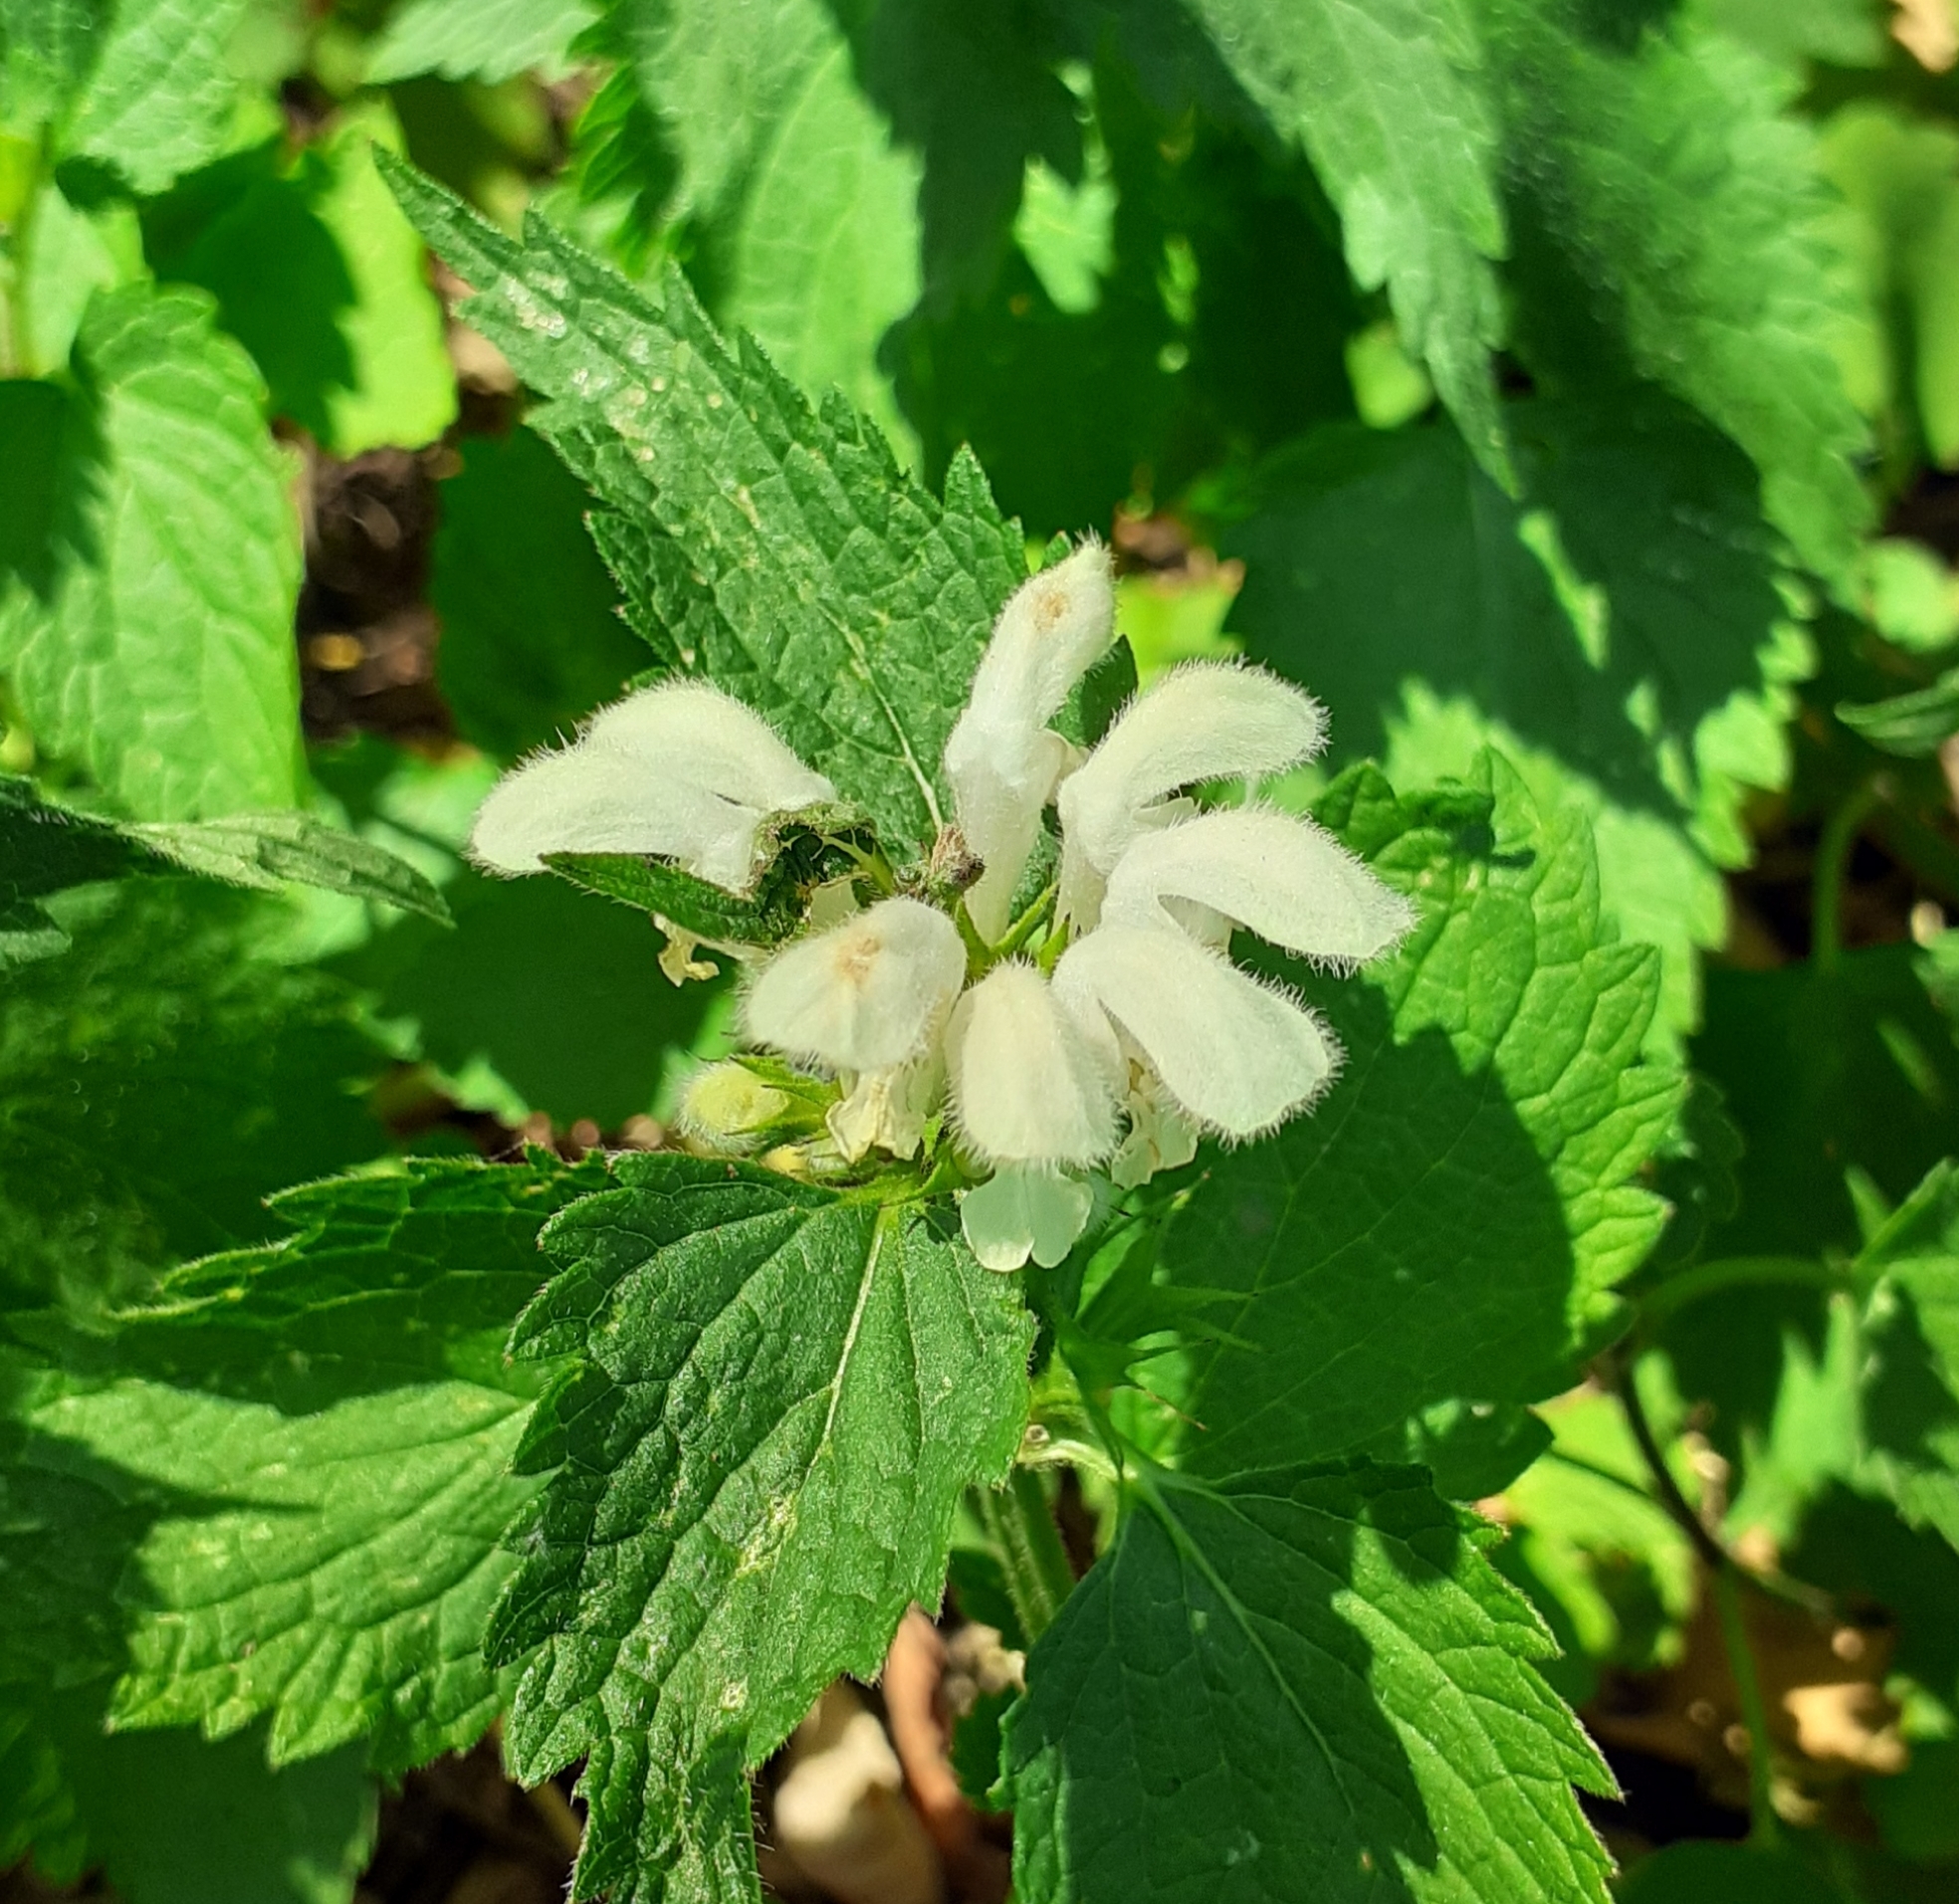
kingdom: Plantae
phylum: Tracheophyta
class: Magnoliopsida
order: Lamiales
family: Lamiaceae
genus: Lamium
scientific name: Lamium album
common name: White dead-nettle
